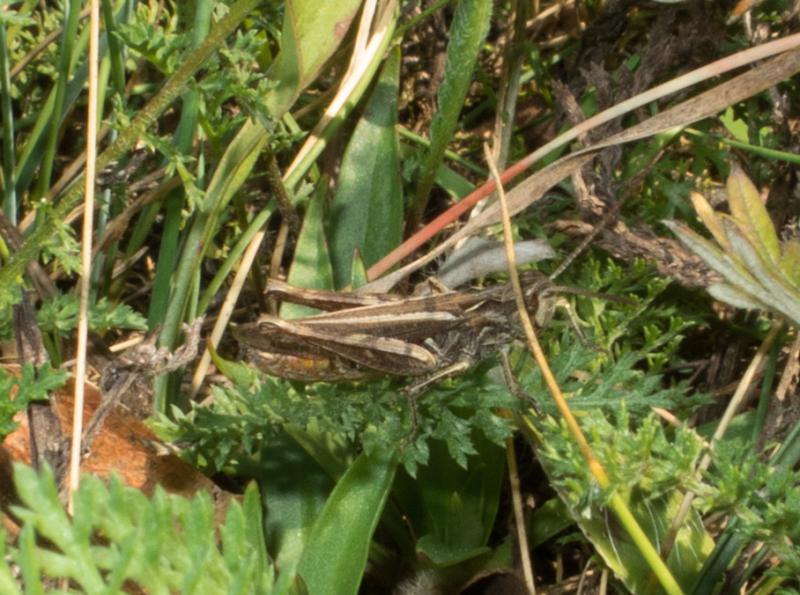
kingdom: Animalia
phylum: Arthropoda
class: Insecta
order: Orthoptera
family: Acrididae
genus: Chorthippus
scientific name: Chorthippus mollis
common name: Lesser field grasshopper
